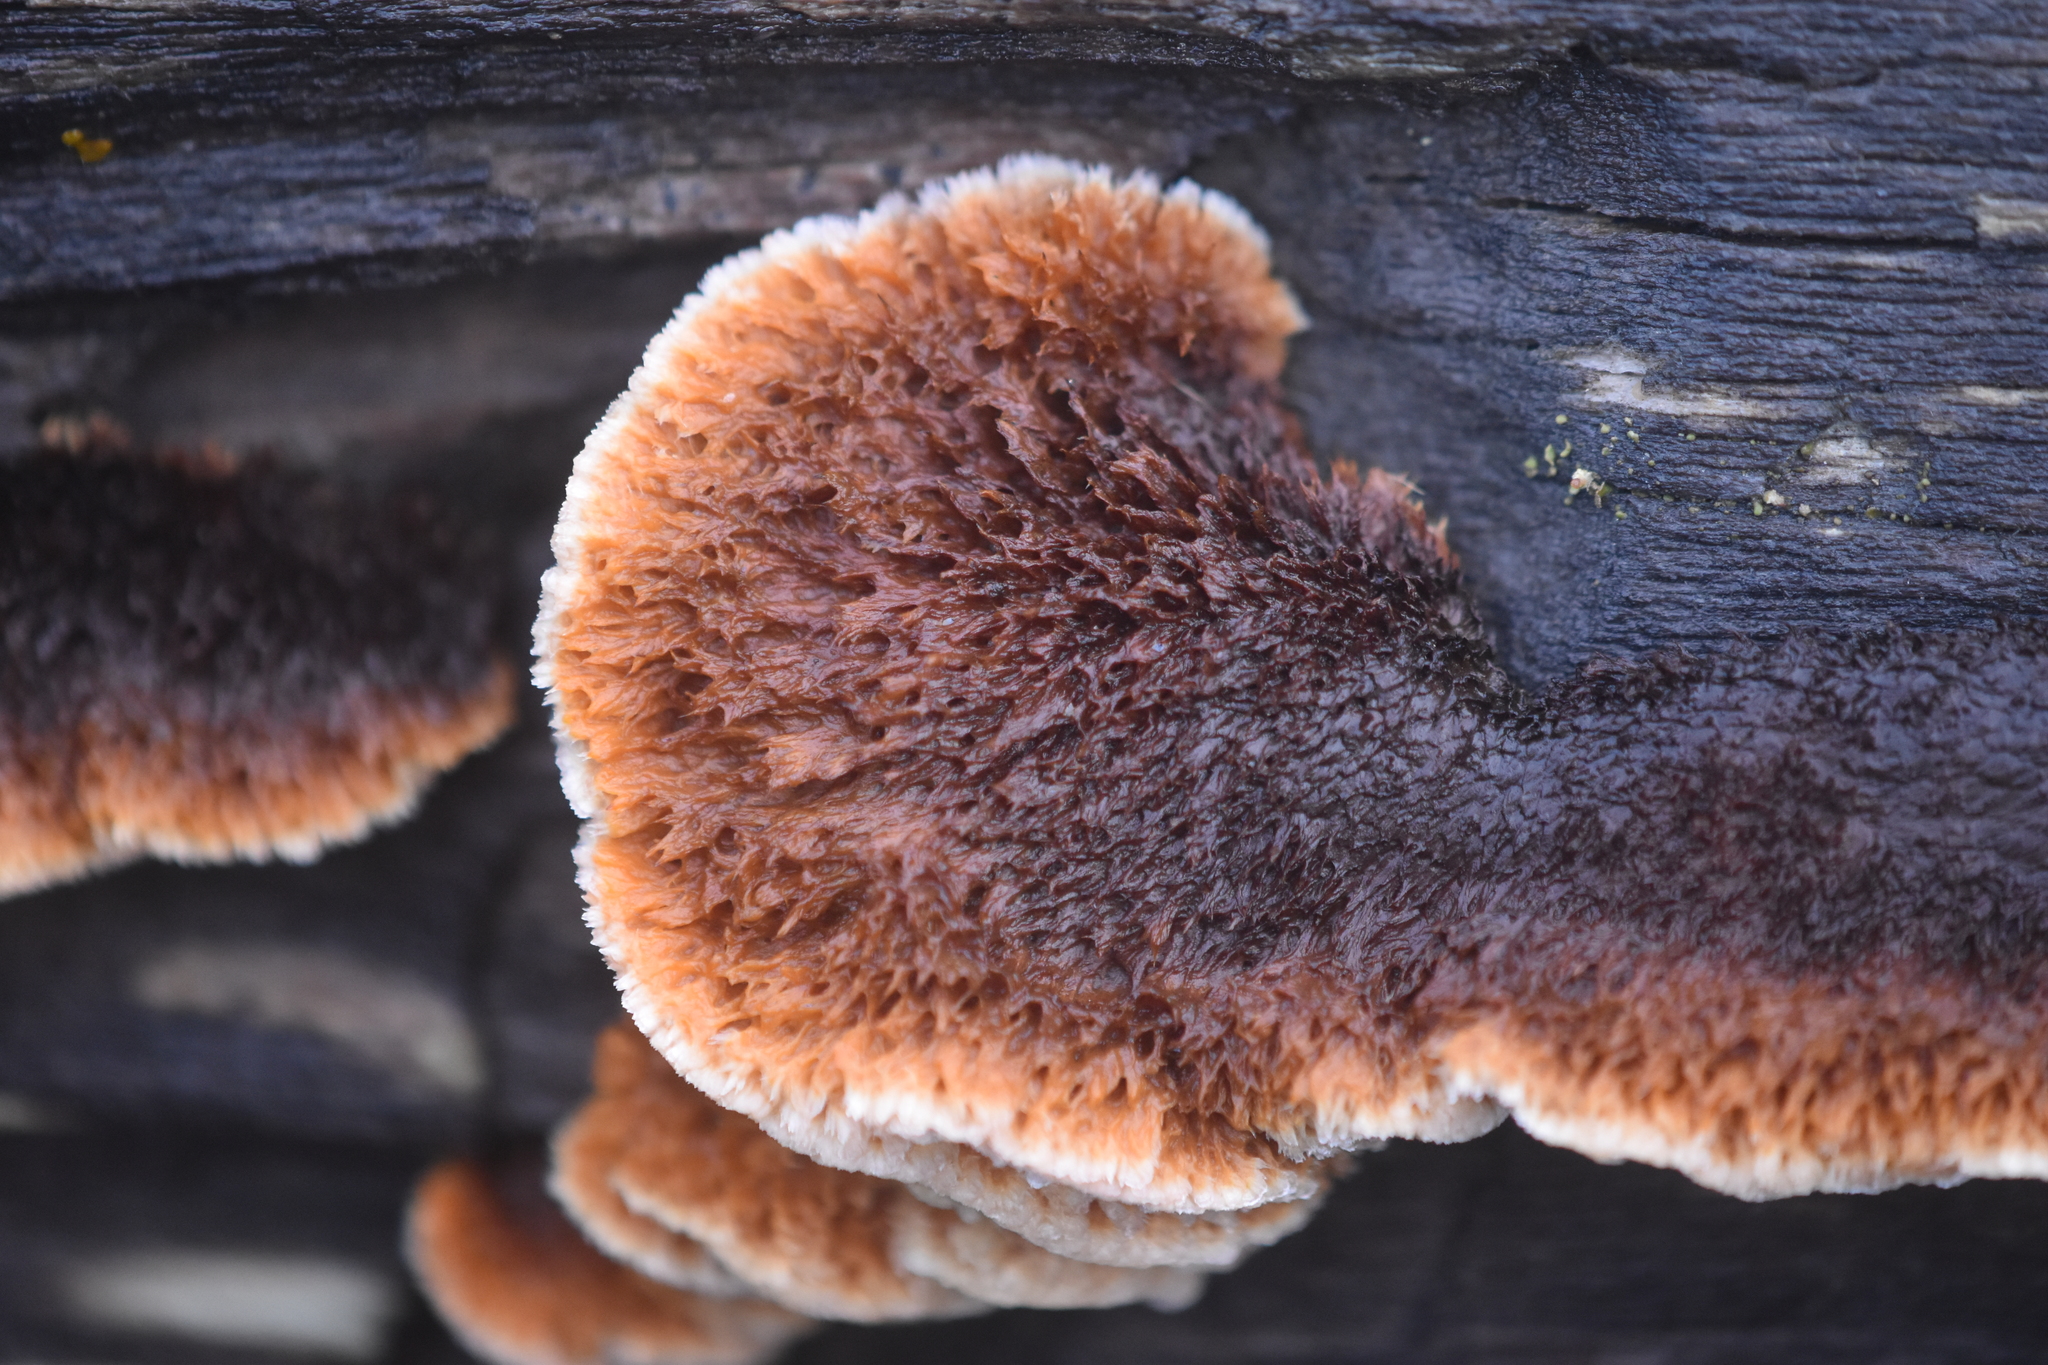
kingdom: Fungi
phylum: Basidiomycota
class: Agaricomycetes
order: Gloeophyllales
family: Gloeophyllaceae
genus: Gloeophyllum
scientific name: Gloeophyllum sepiarium
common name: Conifer mazegill
